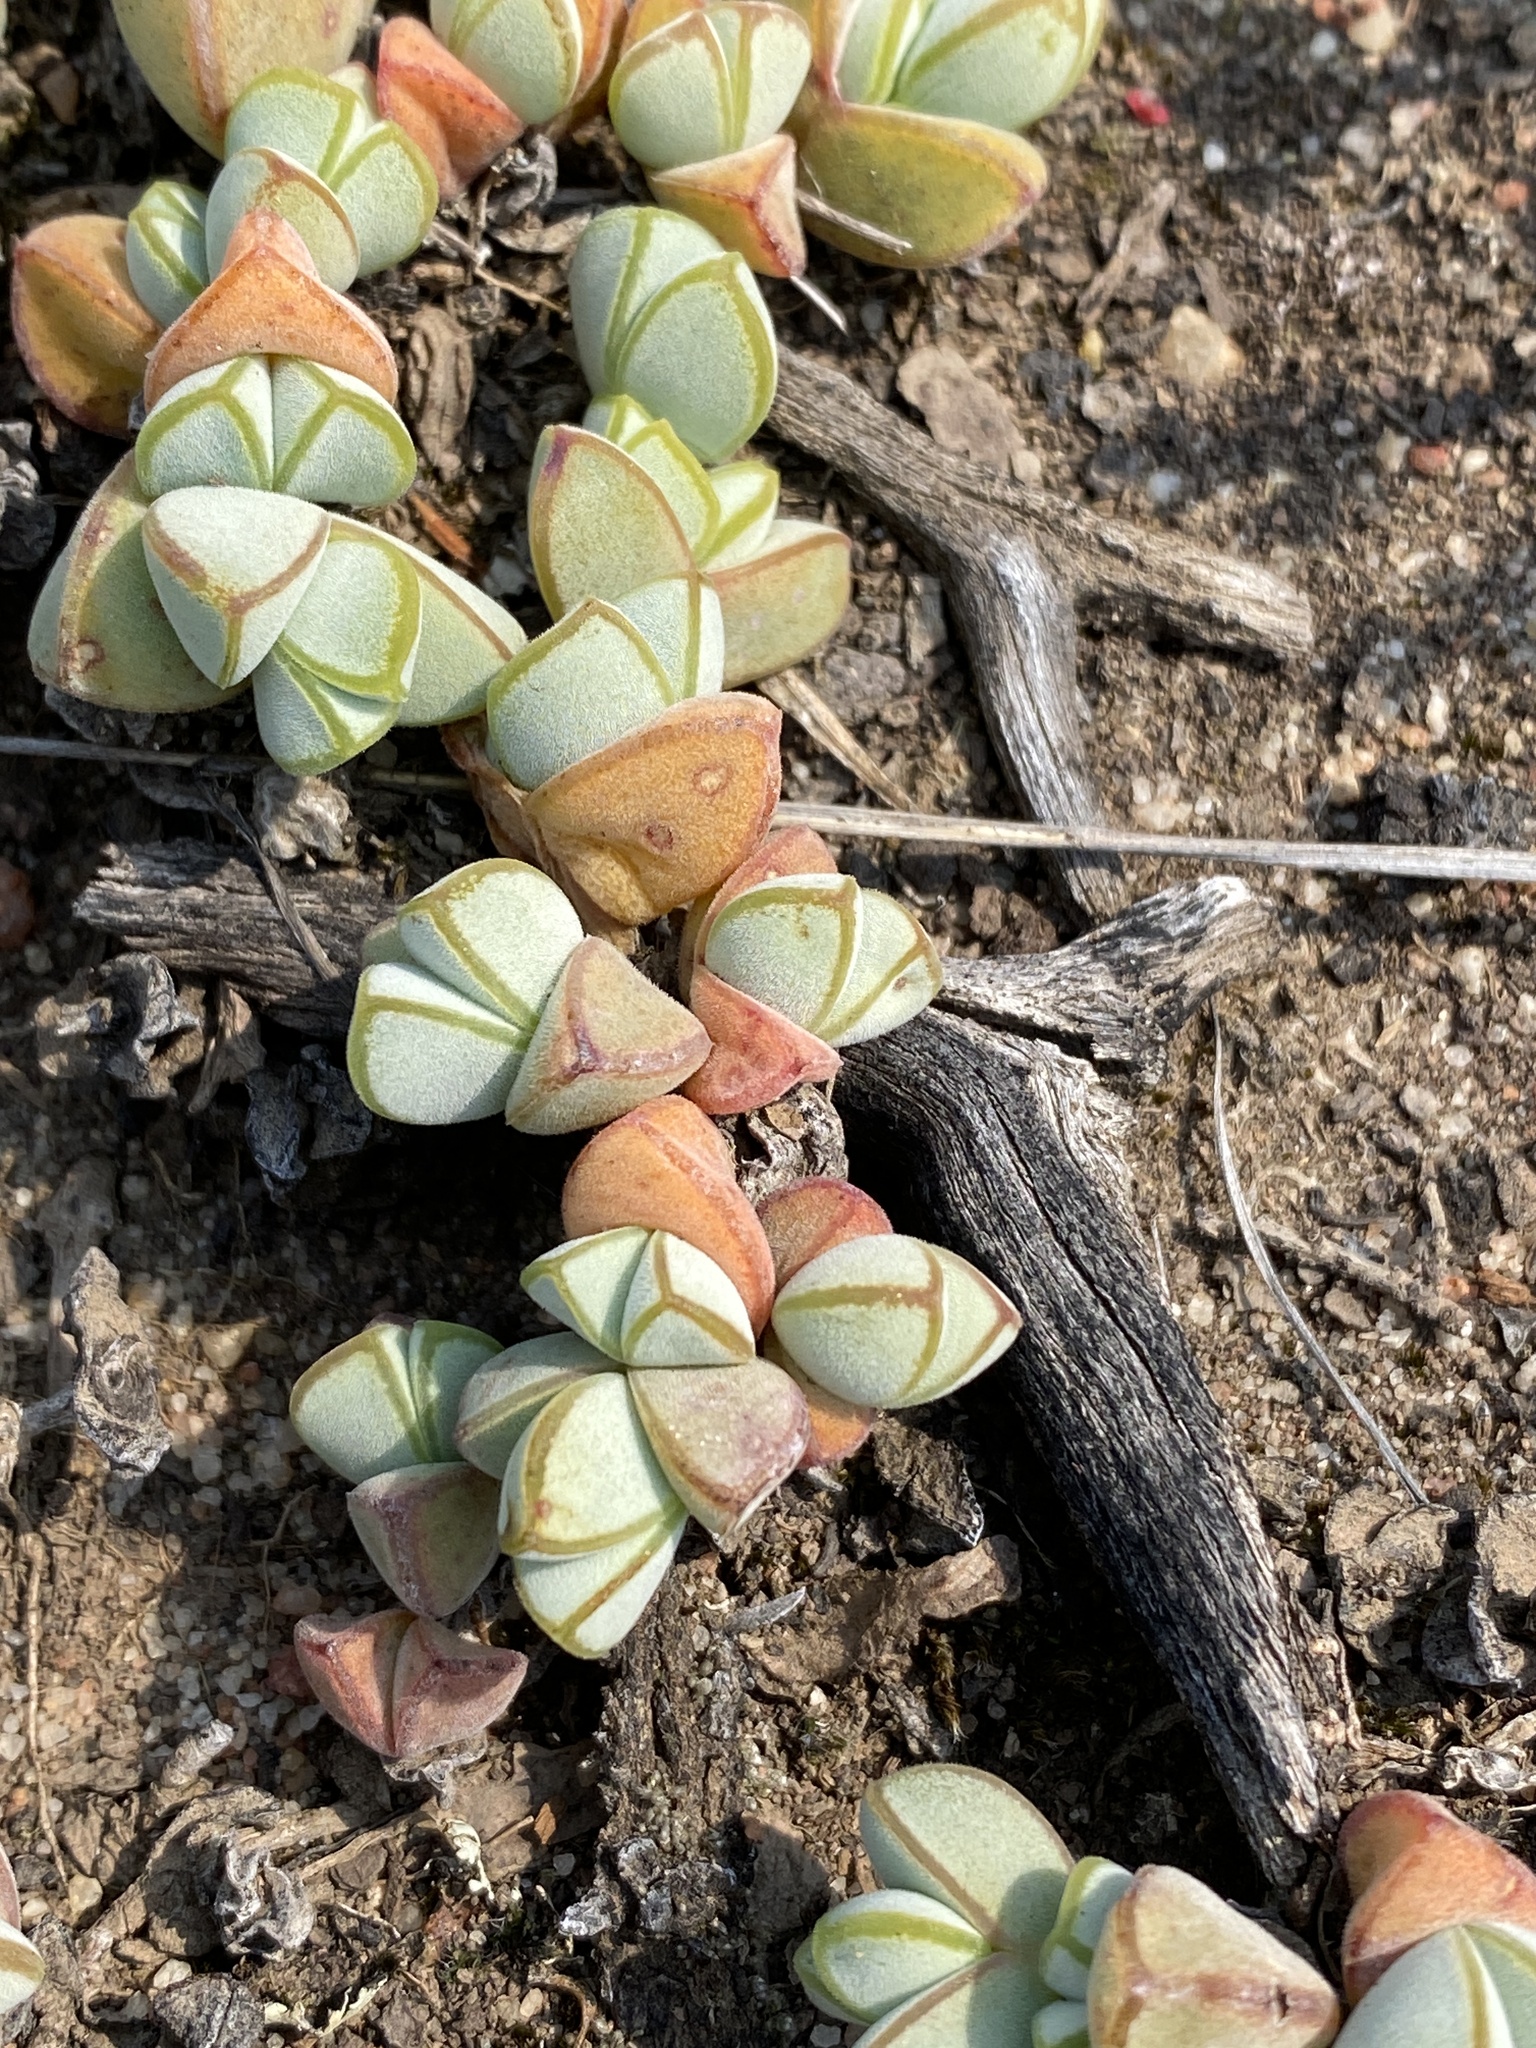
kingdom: Plantae
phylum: Tracheophyta
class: Magnoliopsida
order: Caryophyllales
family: Aizoaceae
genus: Braunsia
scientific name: Braunsia maximiliani
